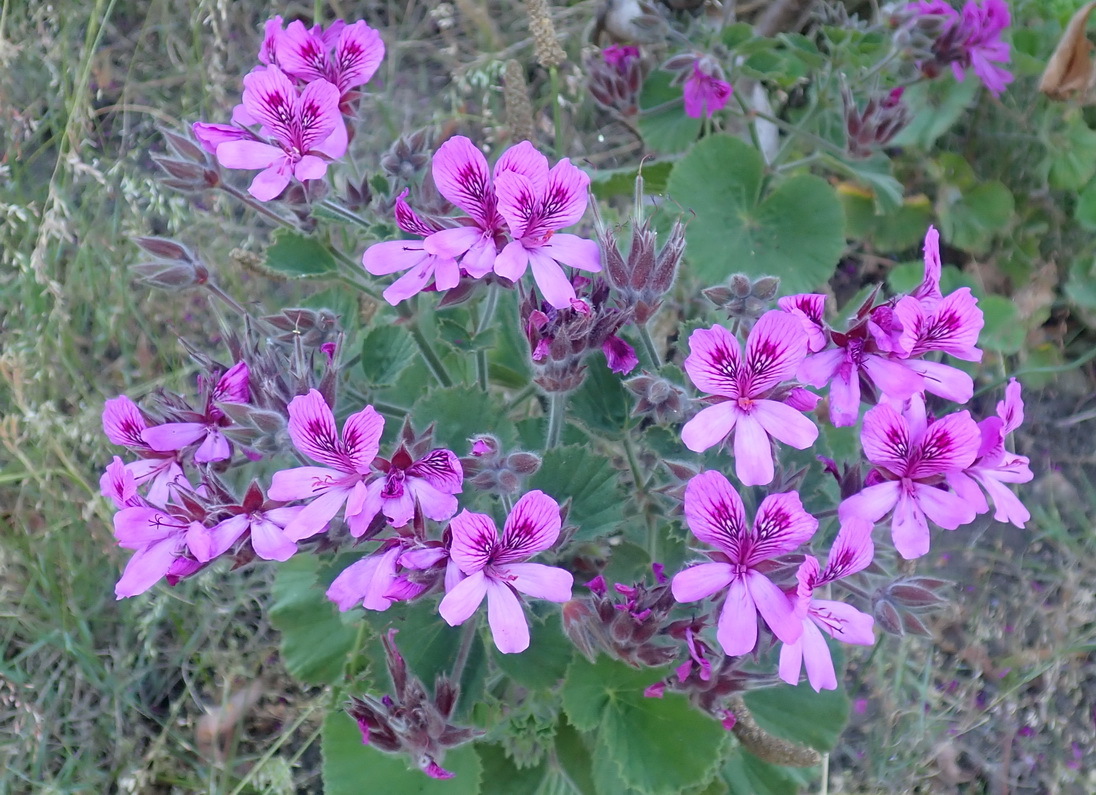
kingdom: Plantae
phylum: Tracheophyta
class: Magnoliopsida
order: Geraniales
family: Geraniaceae
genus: Pelargonium
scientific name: Pelargonium cucullatum
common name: Tree pelargonium
